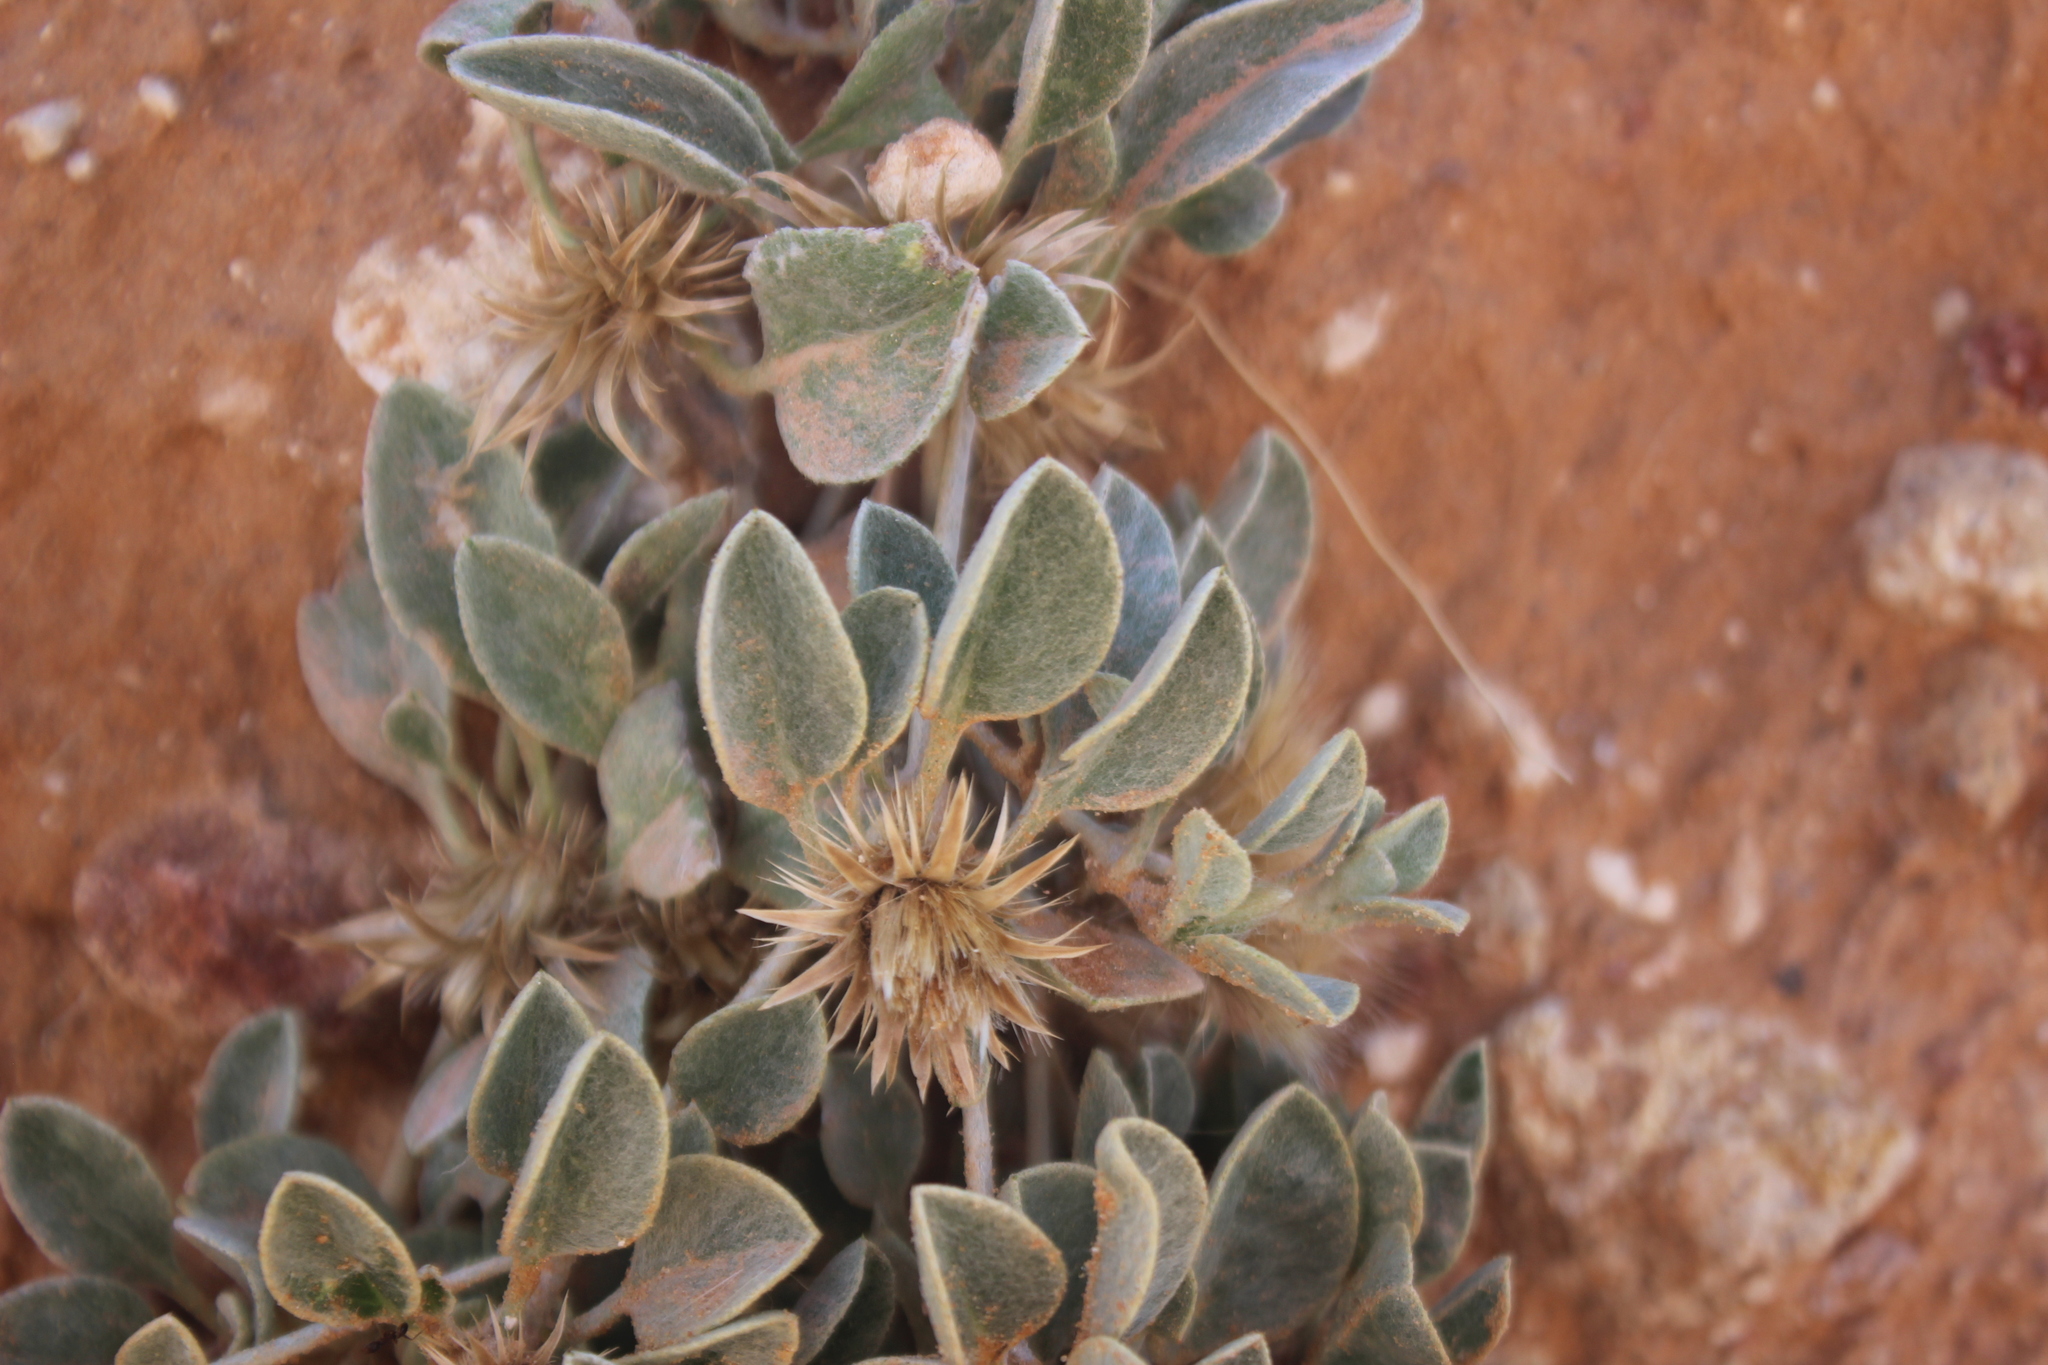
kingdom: Plantae
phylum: Tracheophyta
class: Magnoliopsida
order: Asterales
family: Asteraceae
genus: Dicoma
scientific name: Dicoma schinzii
